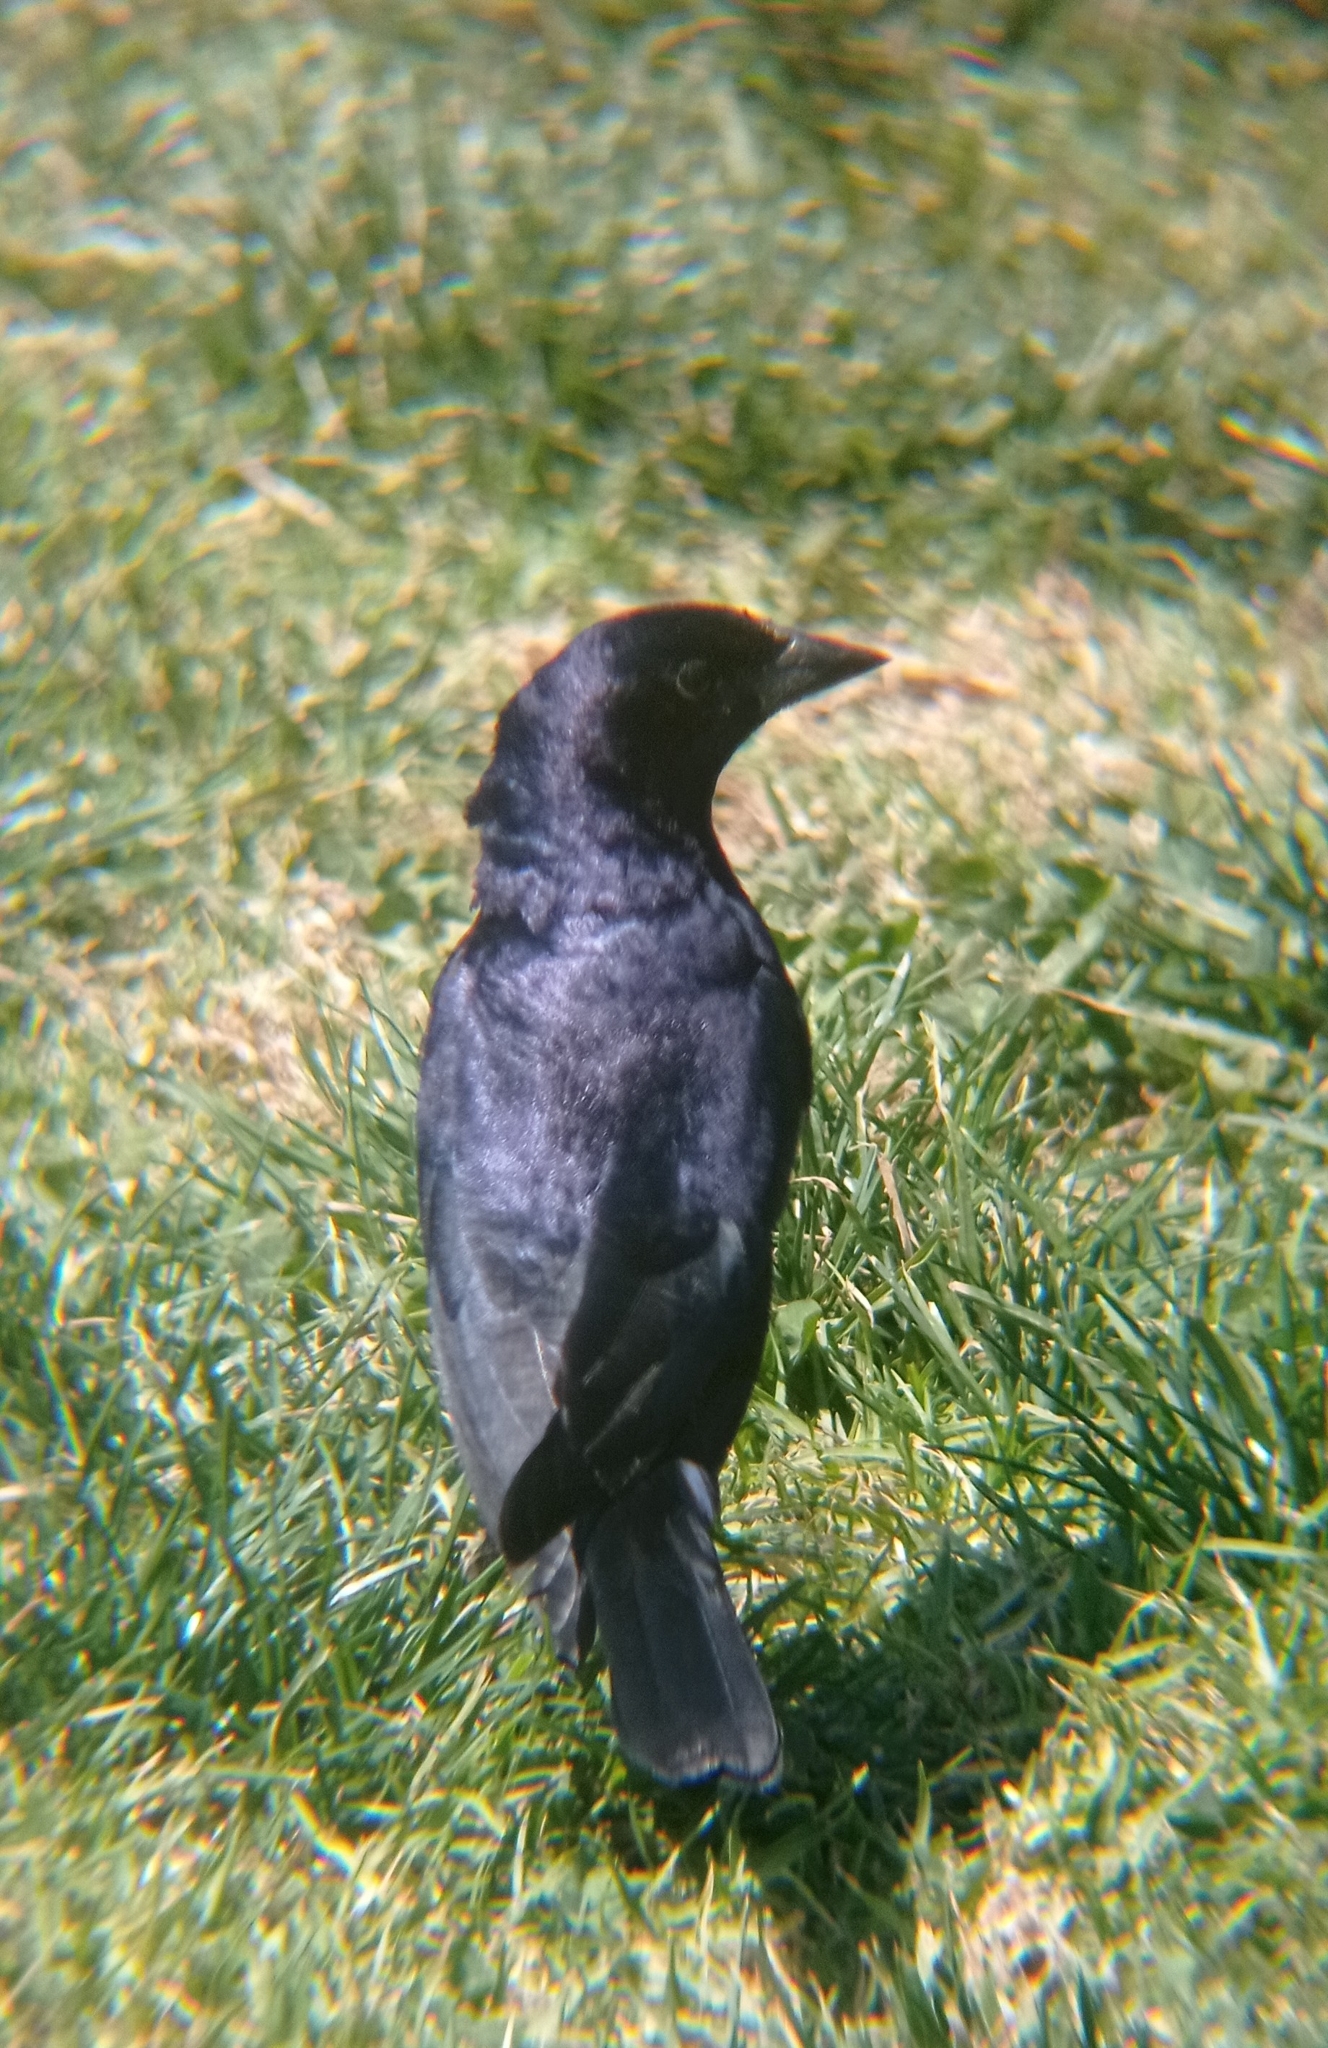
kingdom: Animalia
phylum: Chordata
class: Aves
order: Passeriformes
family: Icteridae
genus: Molothrus
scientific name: Molothrus bonariensis
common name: Shiny cowbird
